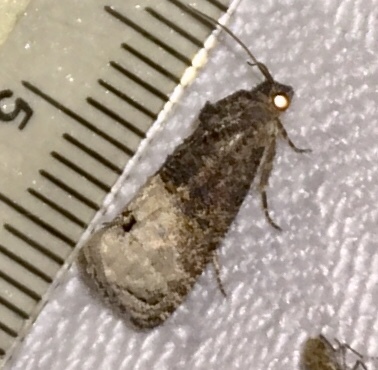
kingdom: Animalia
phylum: Arthropoda
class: Insecta
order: Lepidoptera
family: Tortricidae
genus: Ecdytolopha
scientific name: Ecdytolopha insiticiana
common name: Locust twig borer moth
